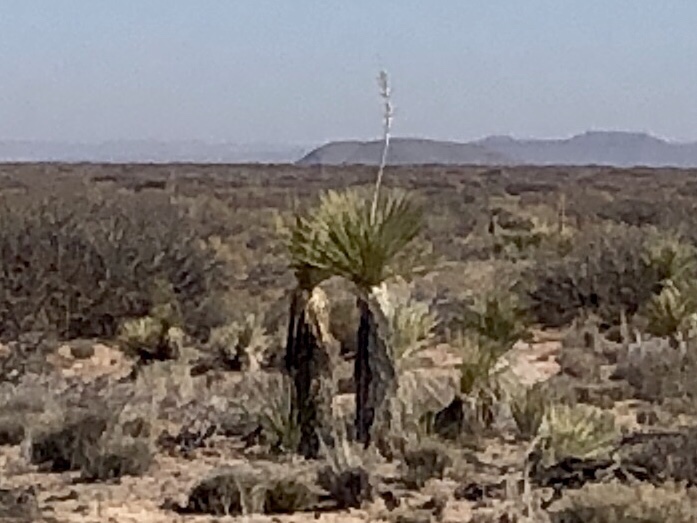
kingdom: Plantae
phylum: Tracheophyta
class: Liliopsida
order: Asparagales
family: Asparagaceae
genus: Yucca
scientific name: Yucca elata
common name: Palmella
